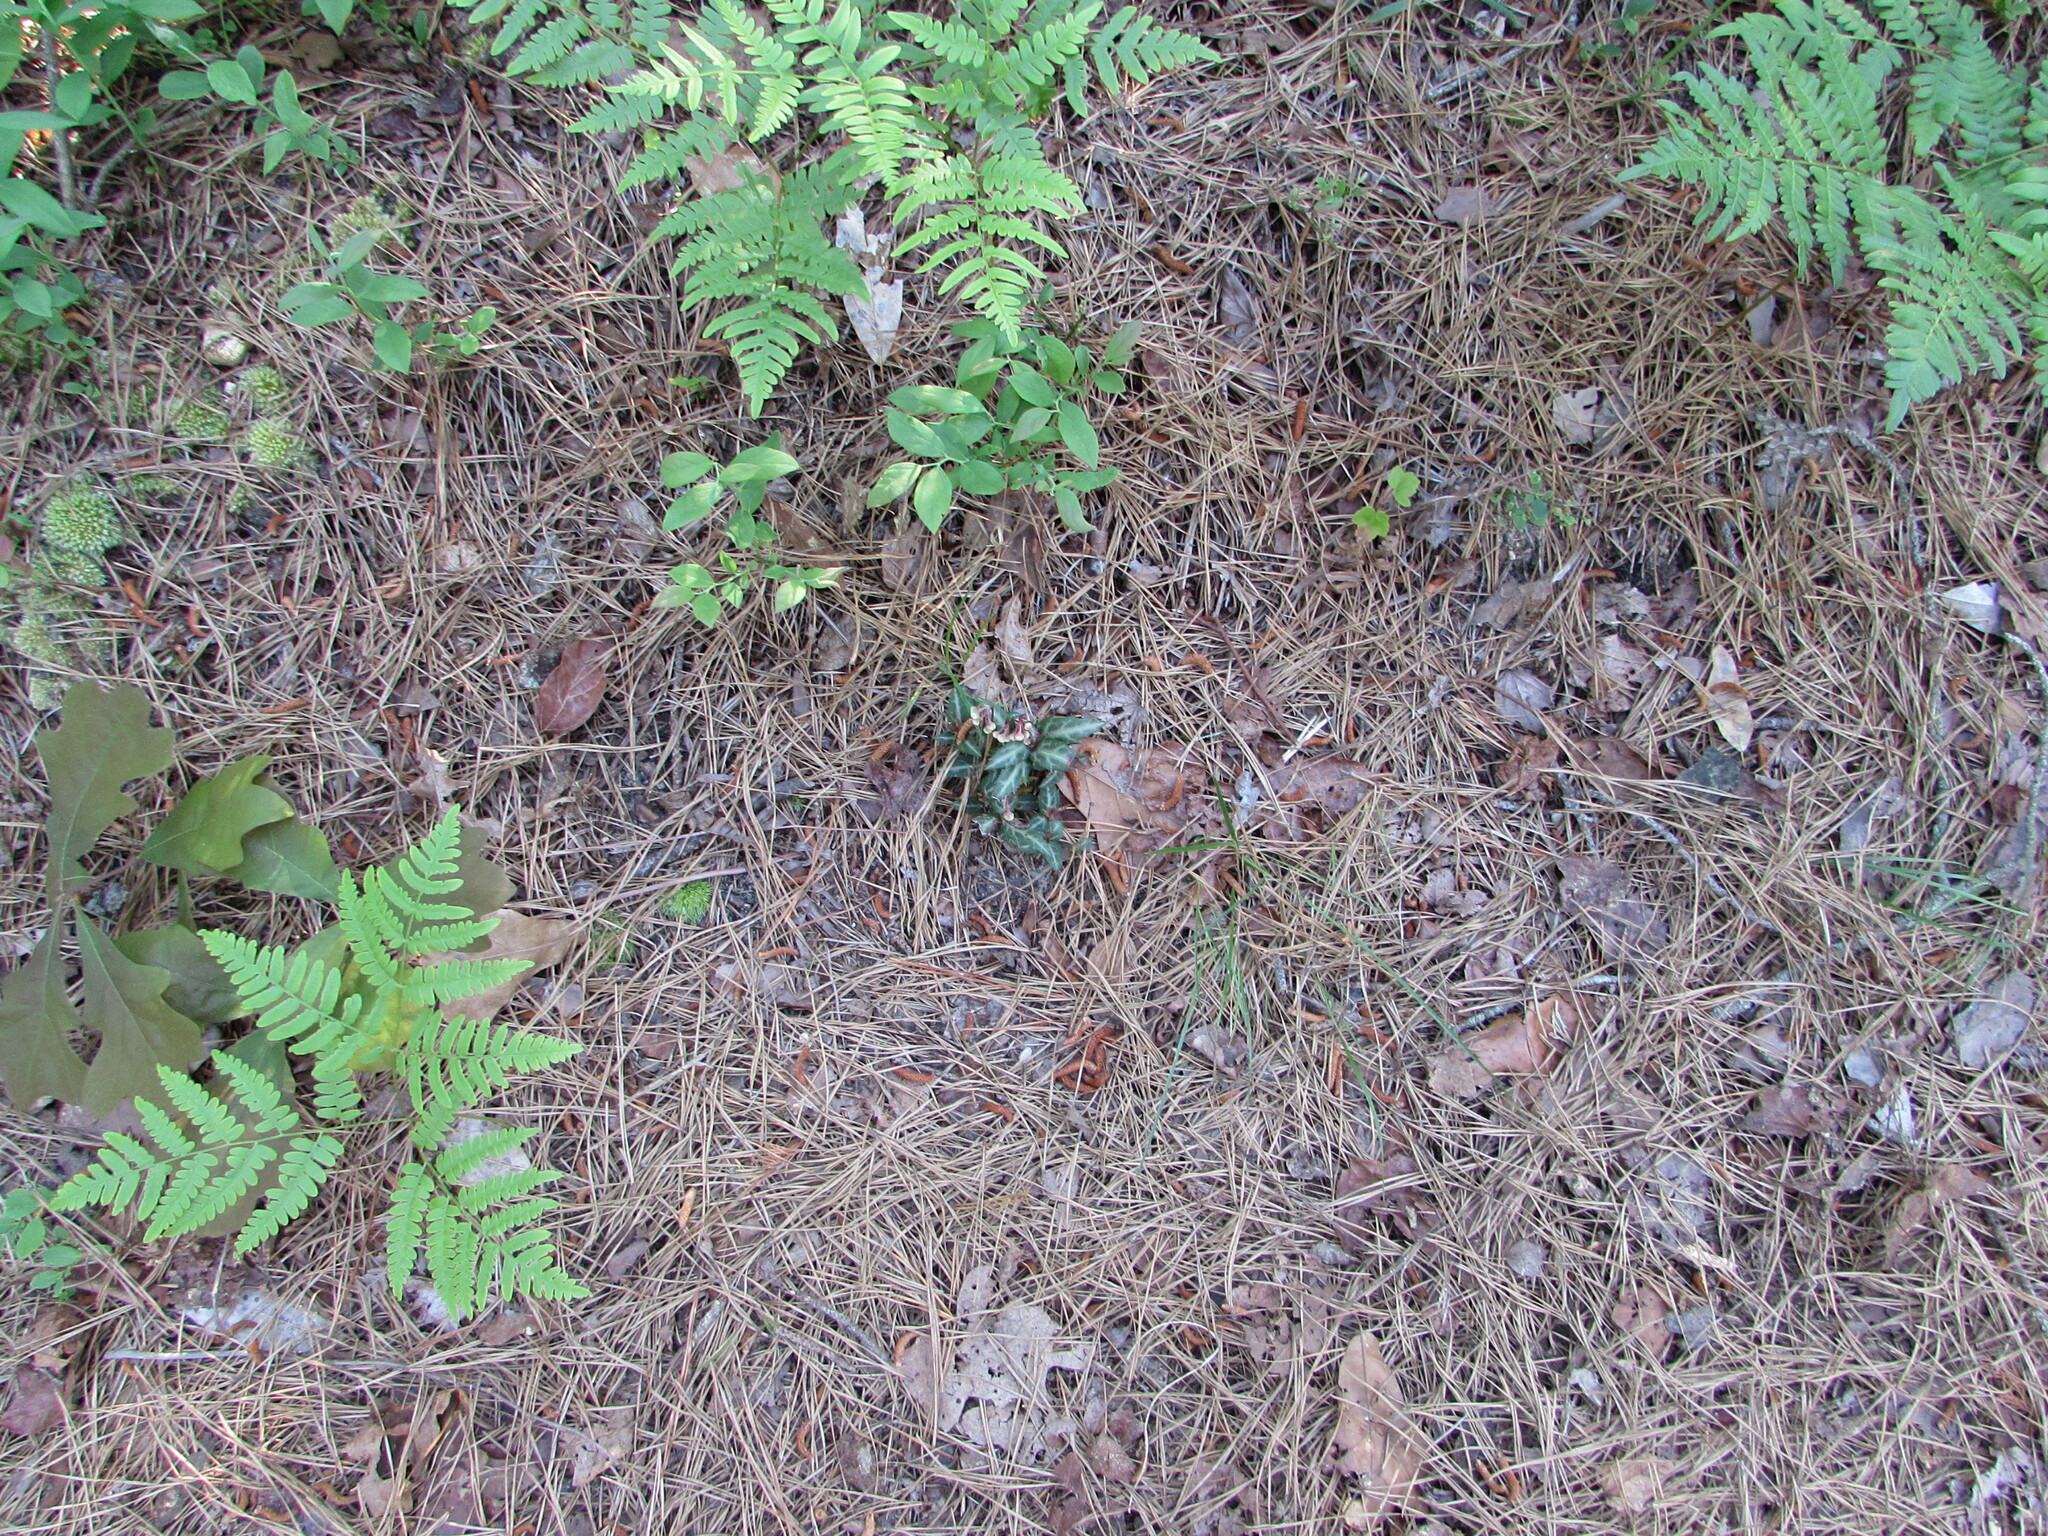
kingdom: Plantae
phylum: Tracheophyta
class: Magnoliopsida
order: Ericales
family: Ericaceae
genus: Chimaphila
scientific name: Chimaphila maculata
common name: Spotted pipsissewa
